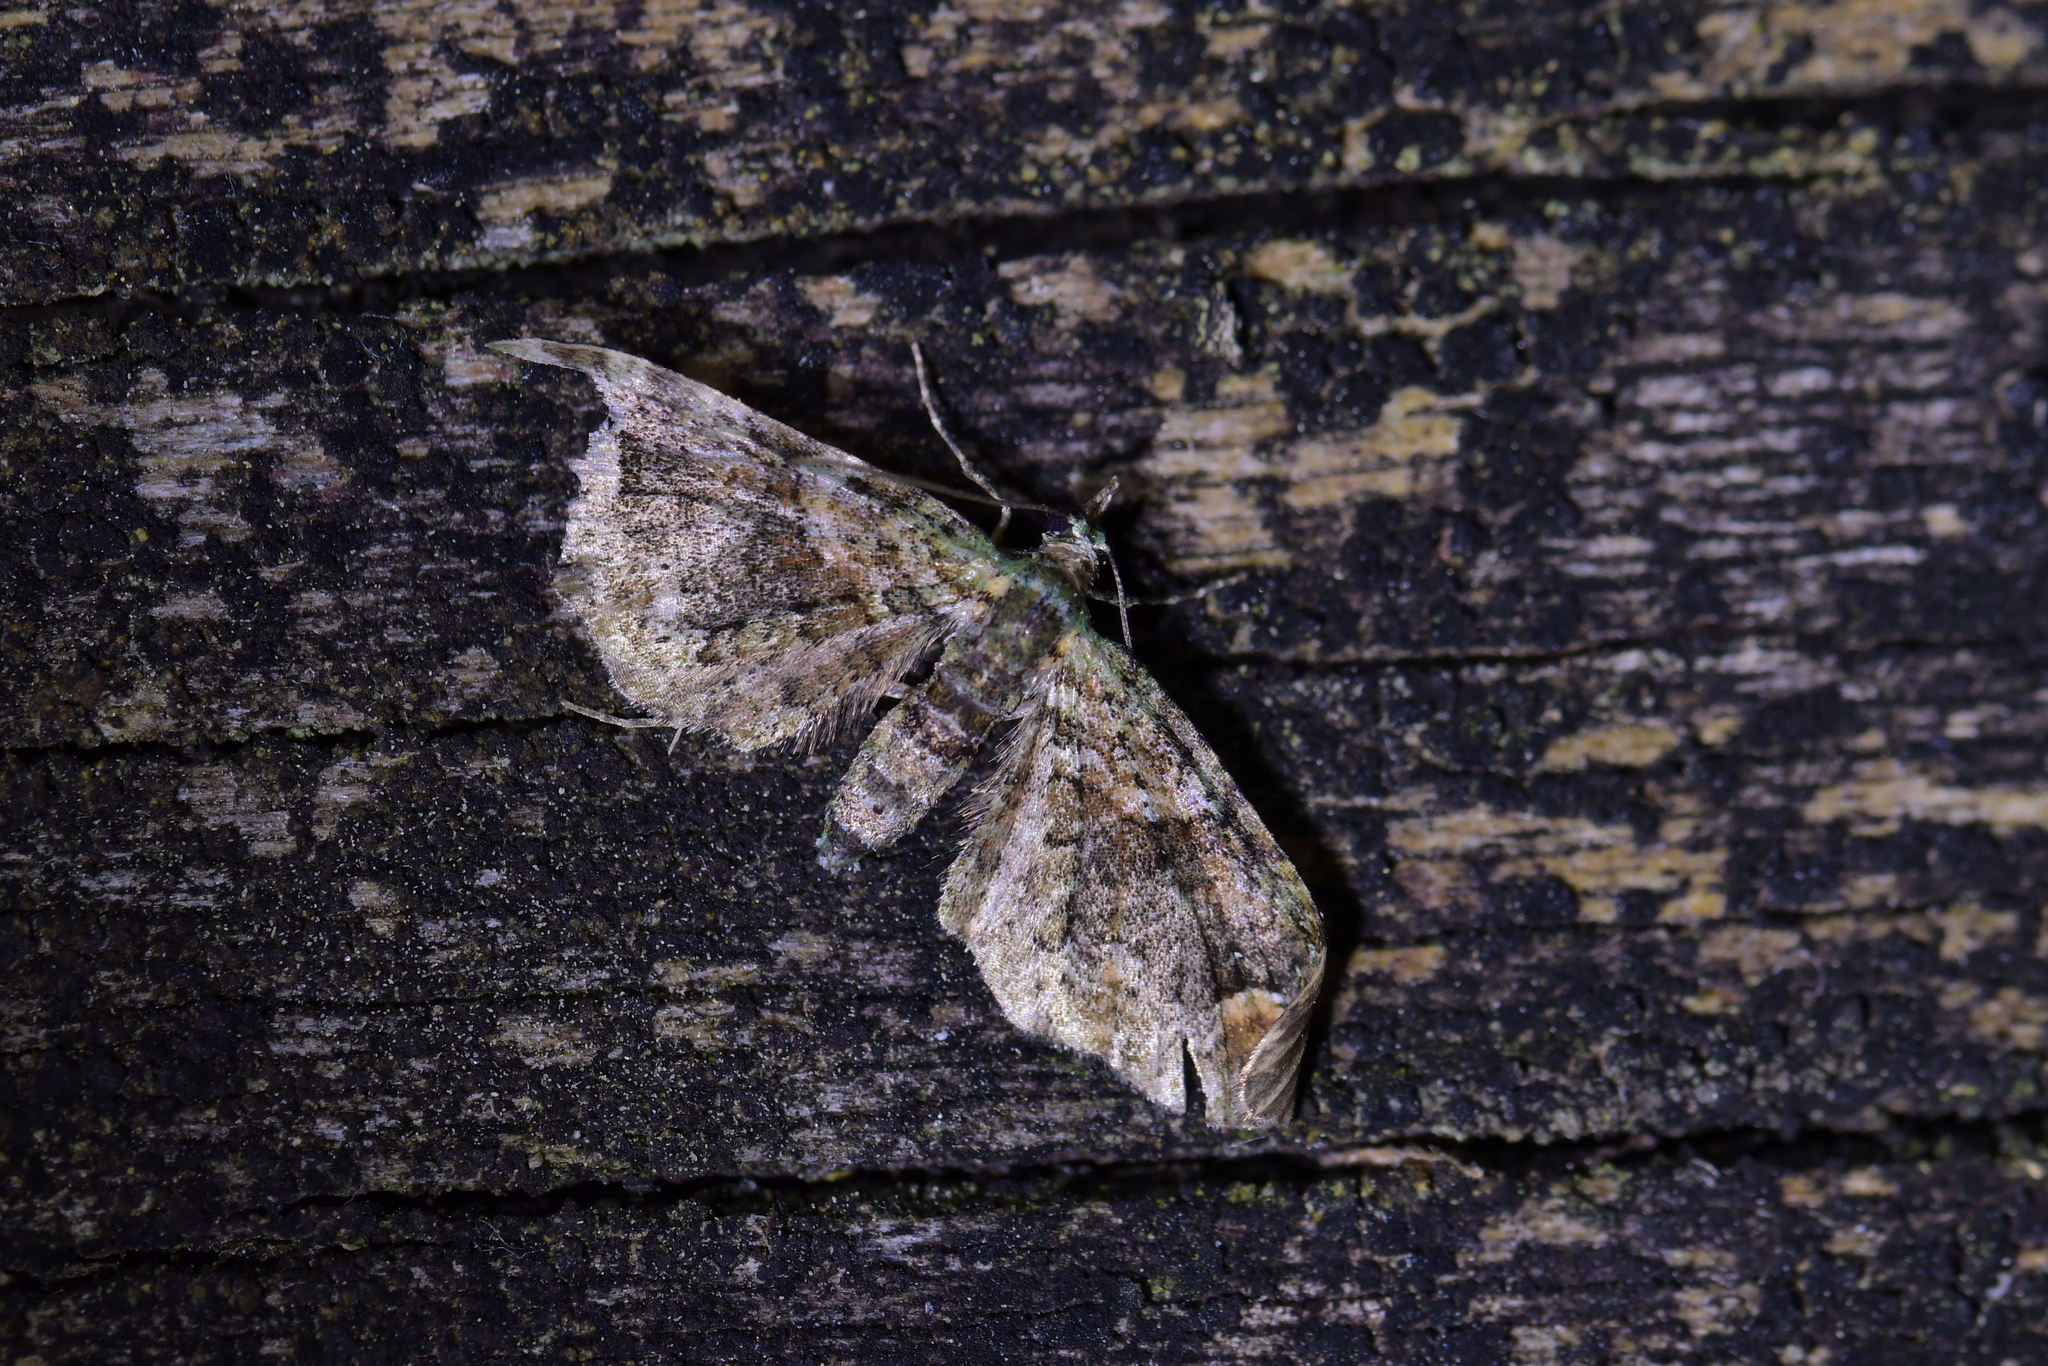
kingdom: Animalia
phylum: Arthropoda
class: Insecta
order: Lepidoptera
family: Geometridae
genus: Idaea
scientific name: Idaea mutanda
